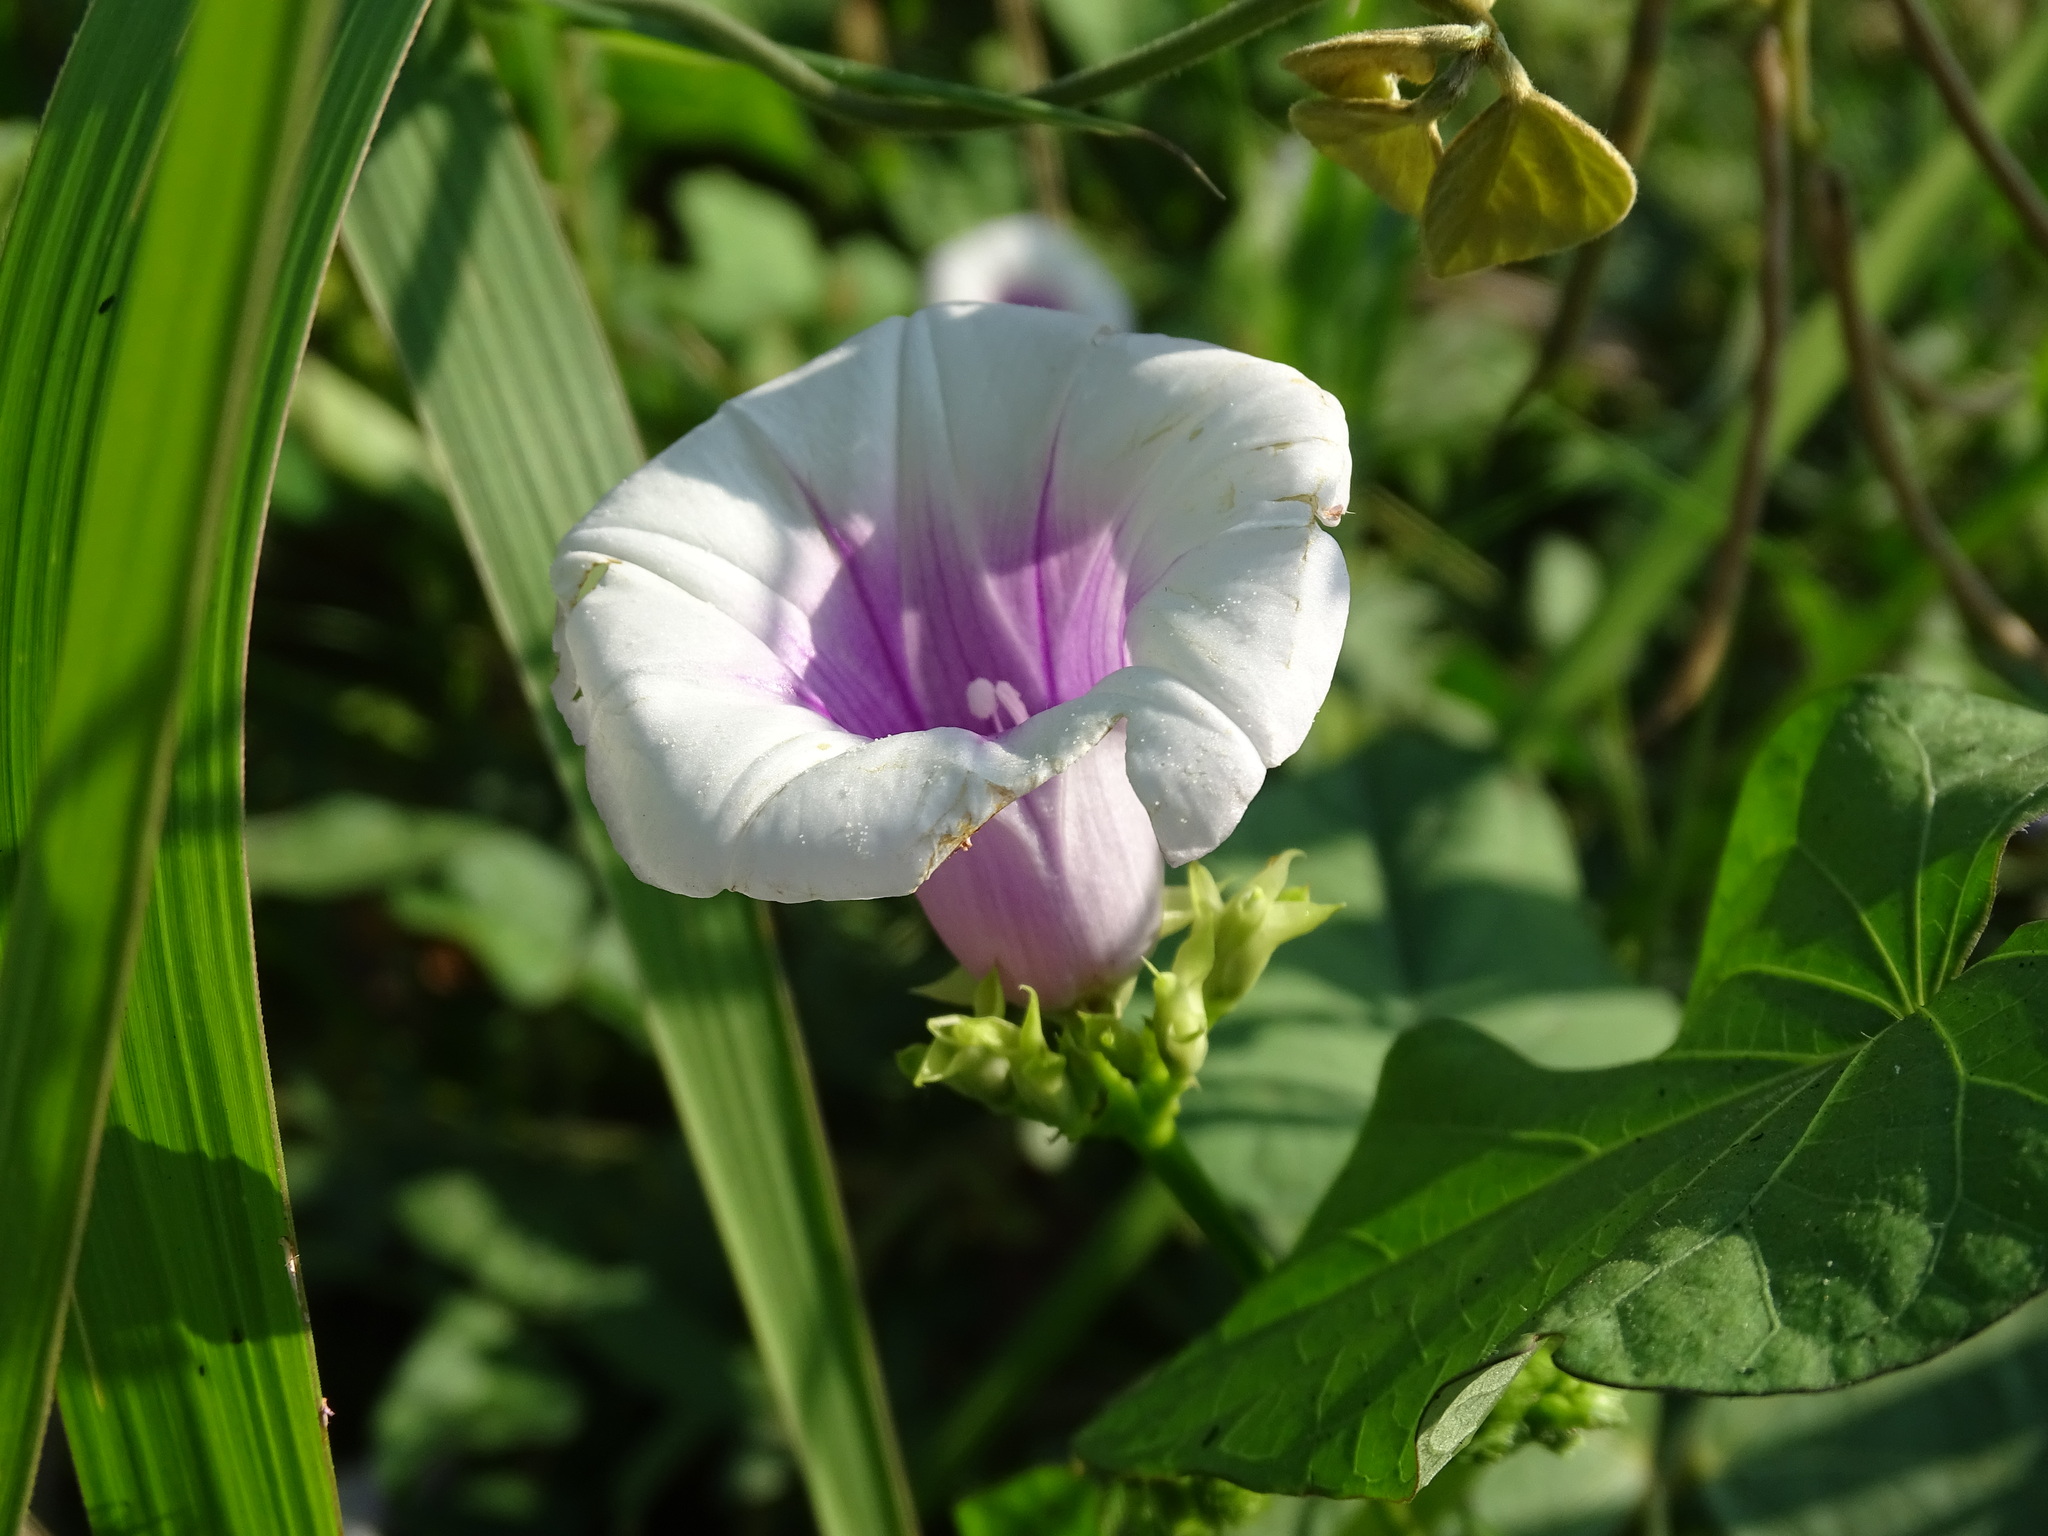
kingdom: Plantae
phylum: Tracheophyta
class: Magnoliopsida
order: Solanales
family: Convolvulaceae
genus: Ipomoea
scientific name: Ipomoea batatas
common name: Sweet-potato
